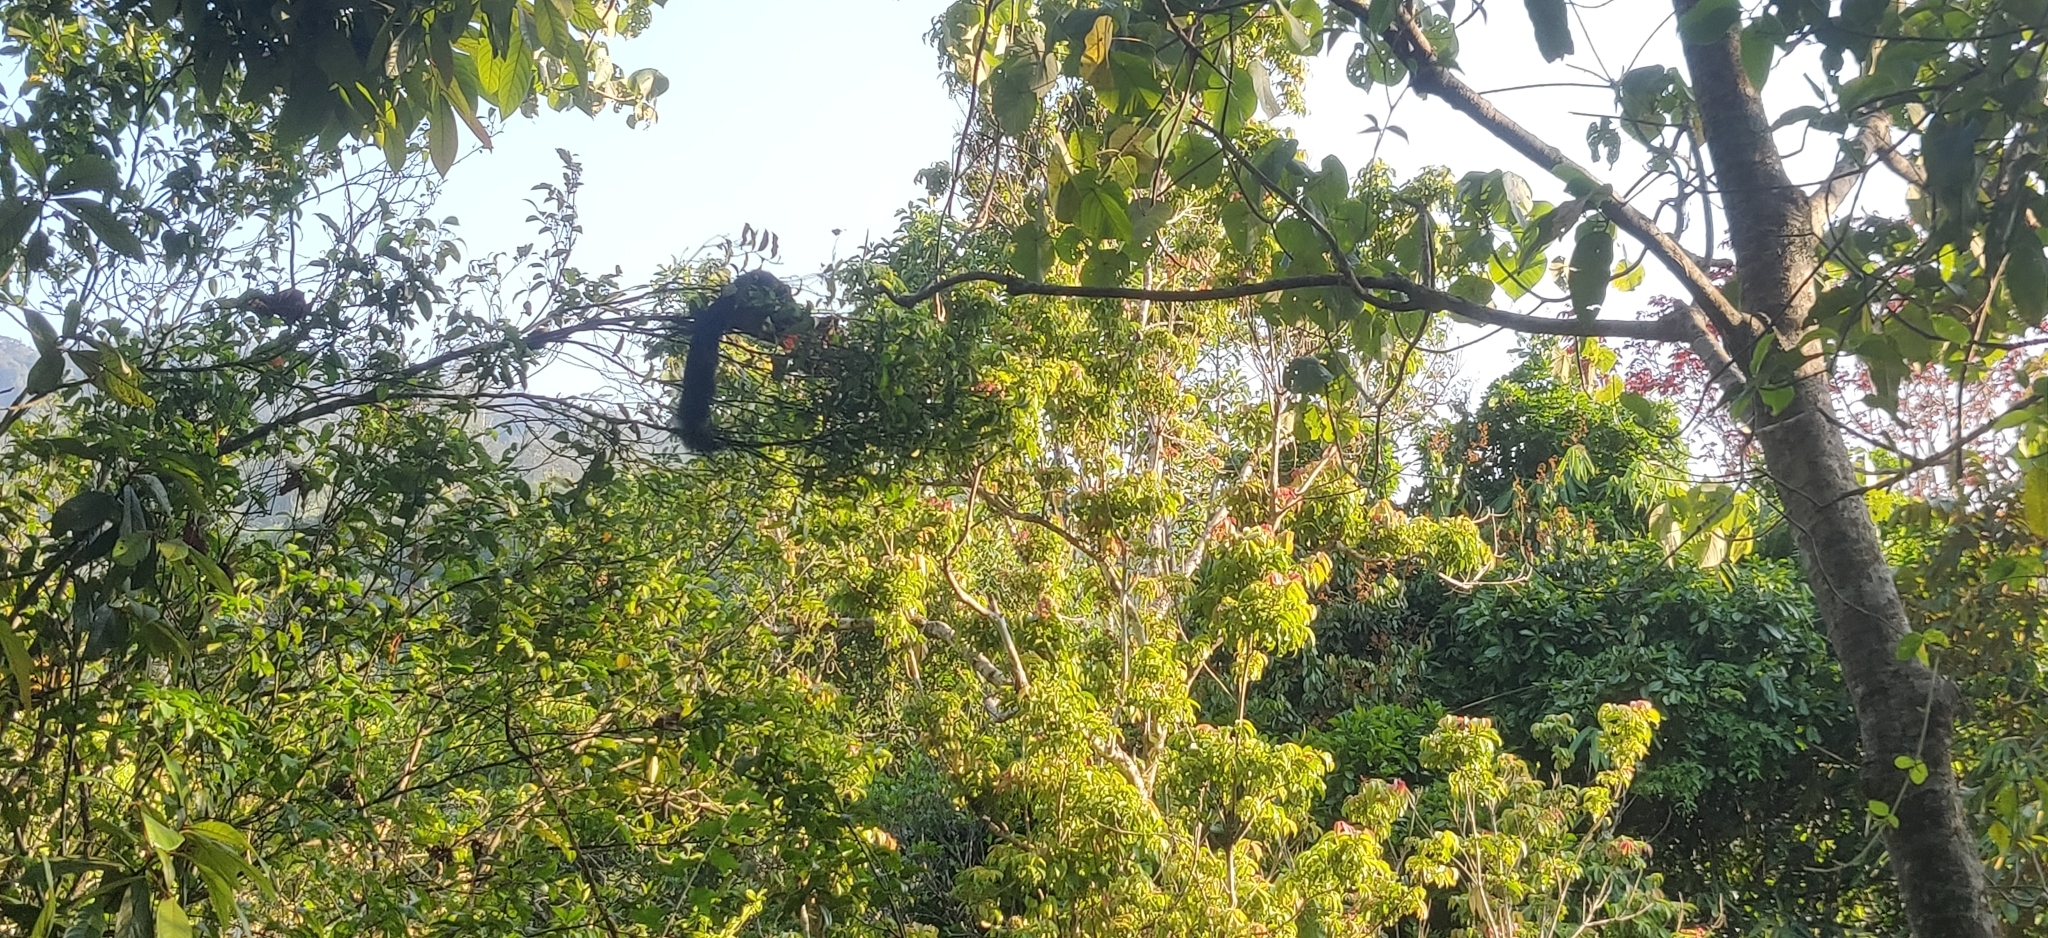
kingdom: Animalia
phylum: Chordata
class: Mammalia
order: Rodentia
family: Sciuridae
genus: Ratufa
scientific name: Ratufa indica
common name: Indian giant squirrel
